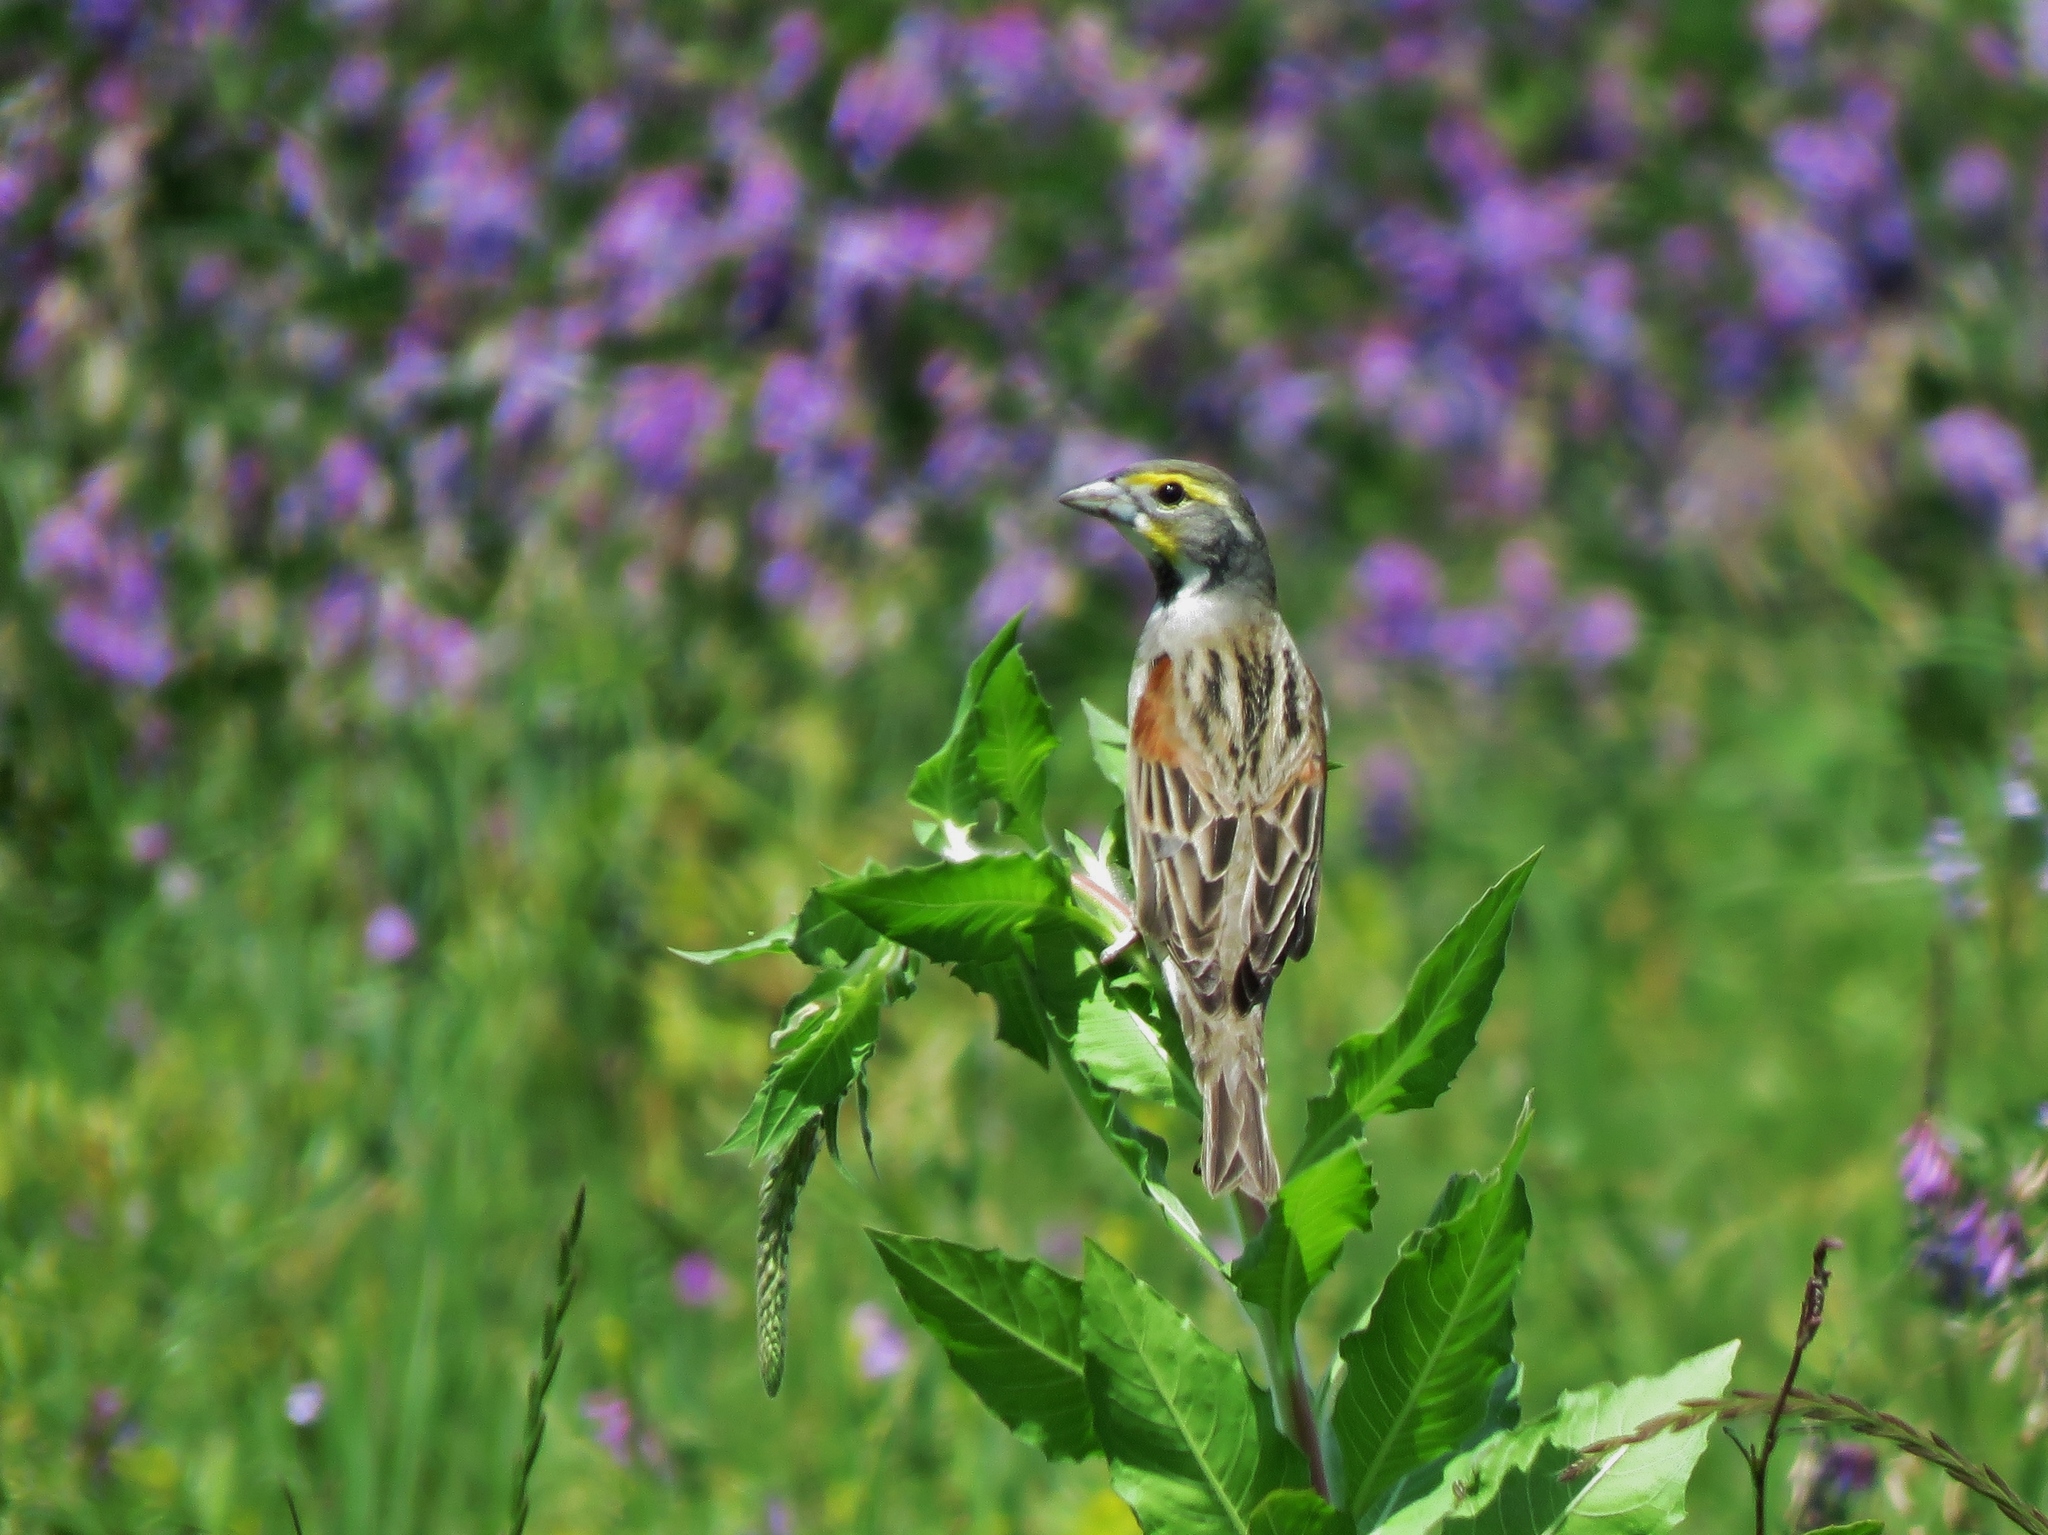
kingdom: Animalia
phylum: Chordata
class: Aves
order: Passeriformes
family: Cardinalidae
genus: Spiza
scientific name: Spiza americana
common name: Dickcissel
